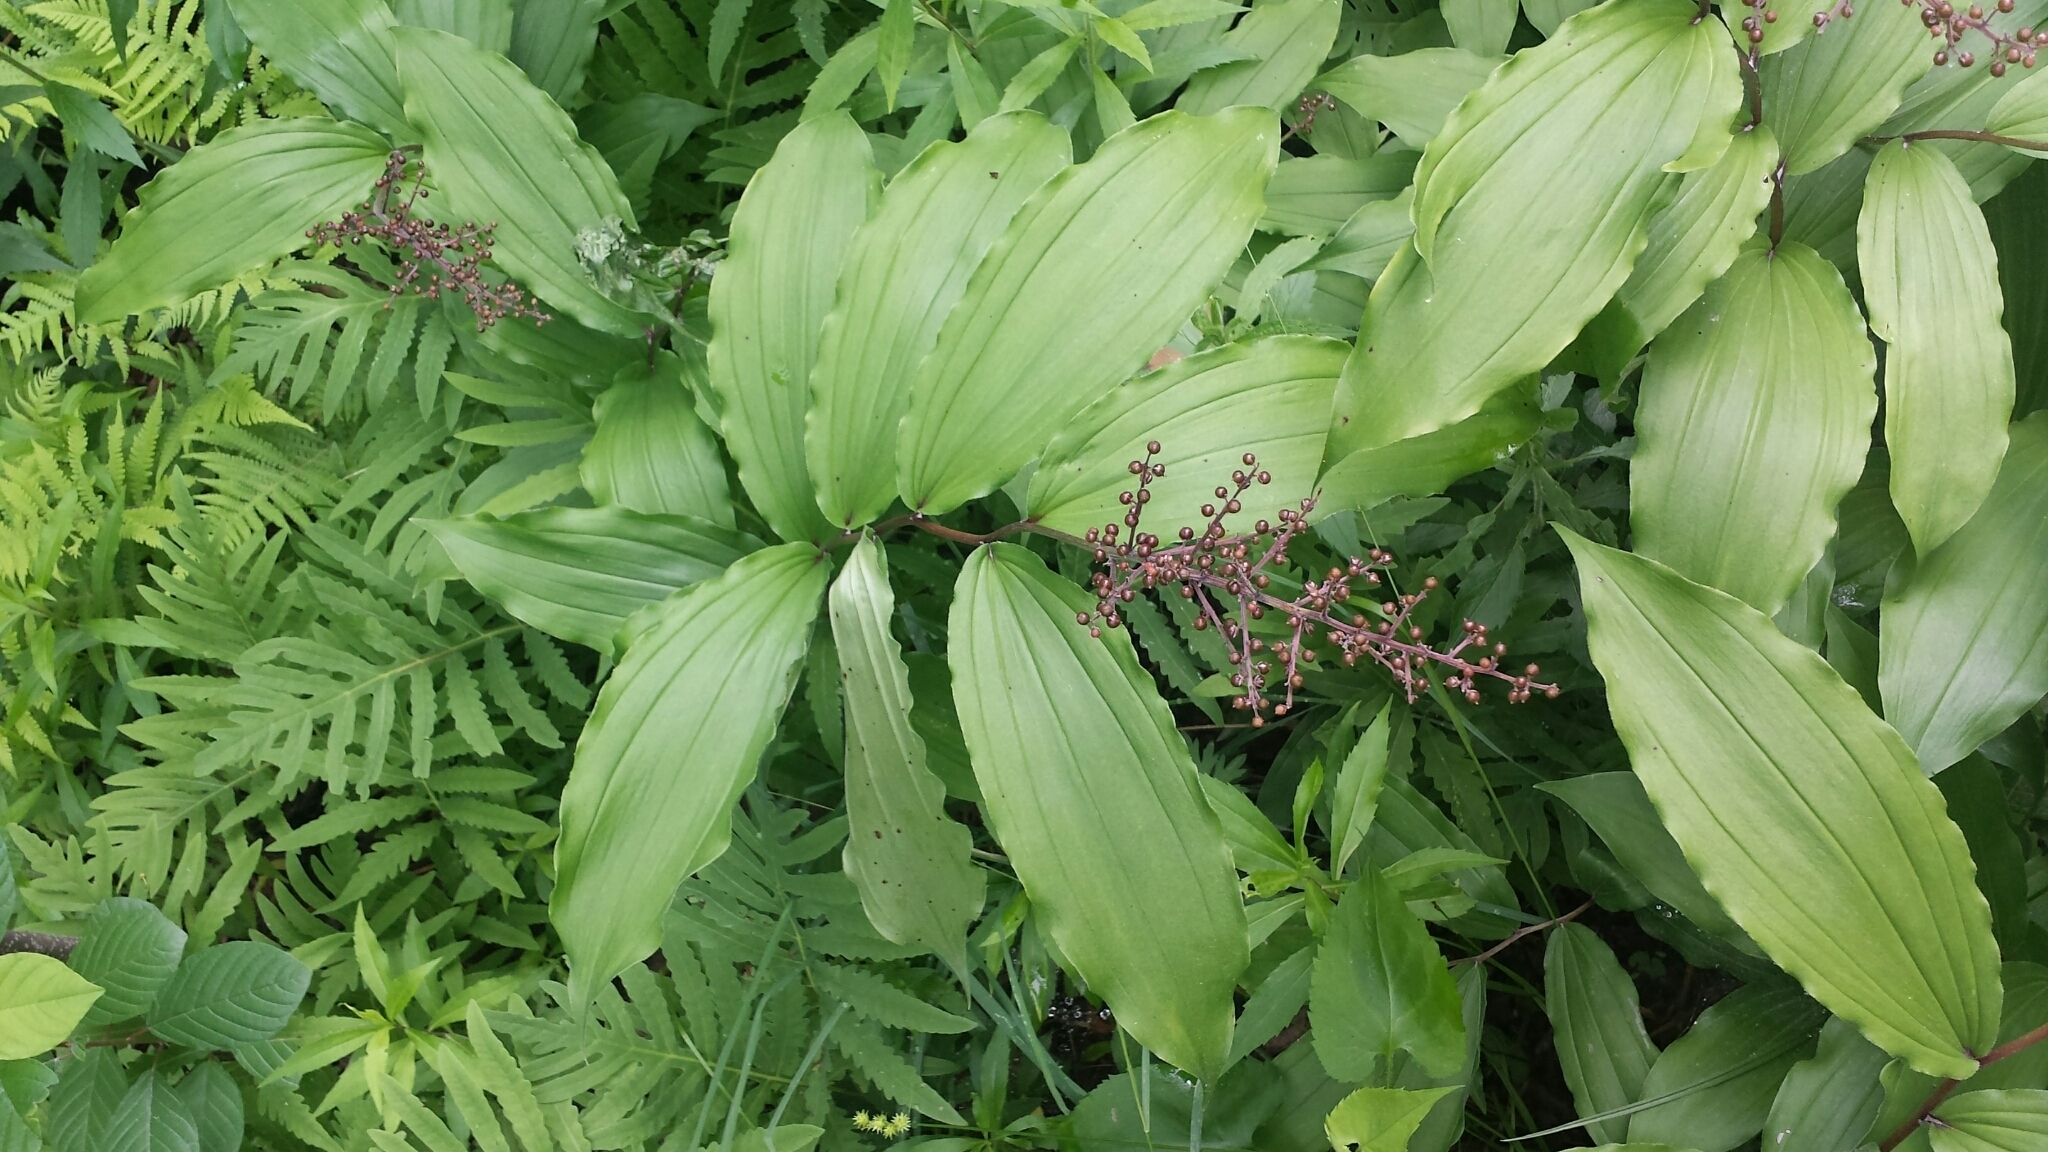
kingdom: Plantae
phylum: Tracheophyta
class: Liliopsida
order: Asparagales
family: Asparagaceae
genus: Maianthemum
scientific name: Maianthemum racemosum
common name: False spikenard
